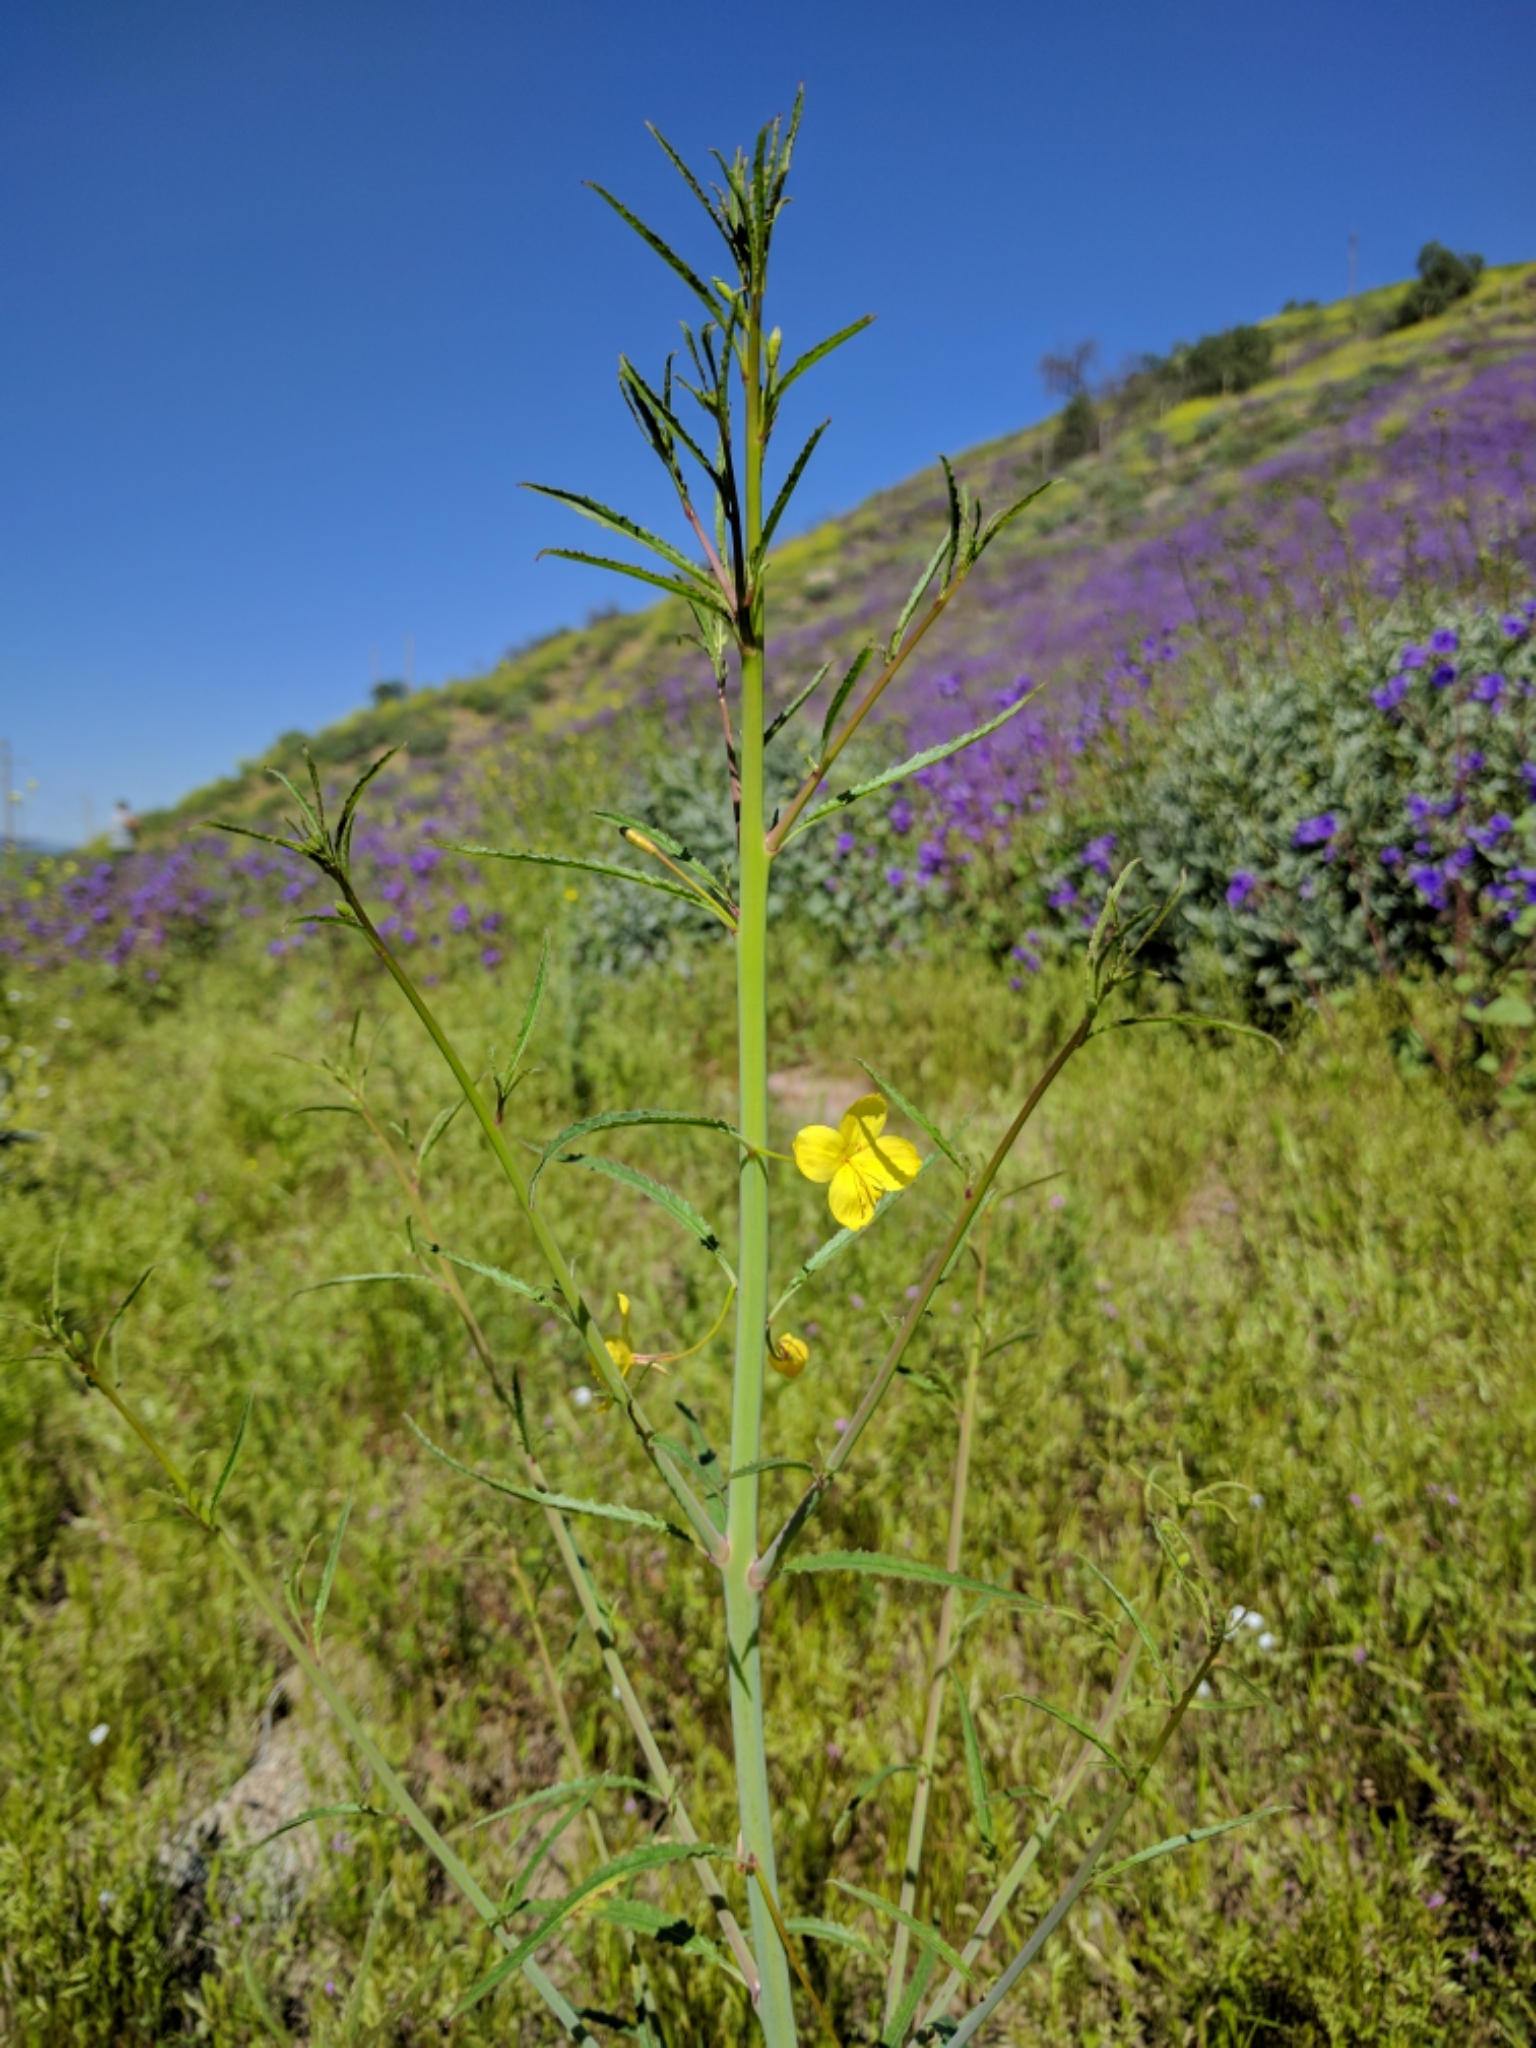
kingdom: Plantae
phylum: Tracheophyta
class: Magnoliopsida
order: Myrtales
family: Onagraceae
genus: Eulobus
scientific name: Eulobus californicus
